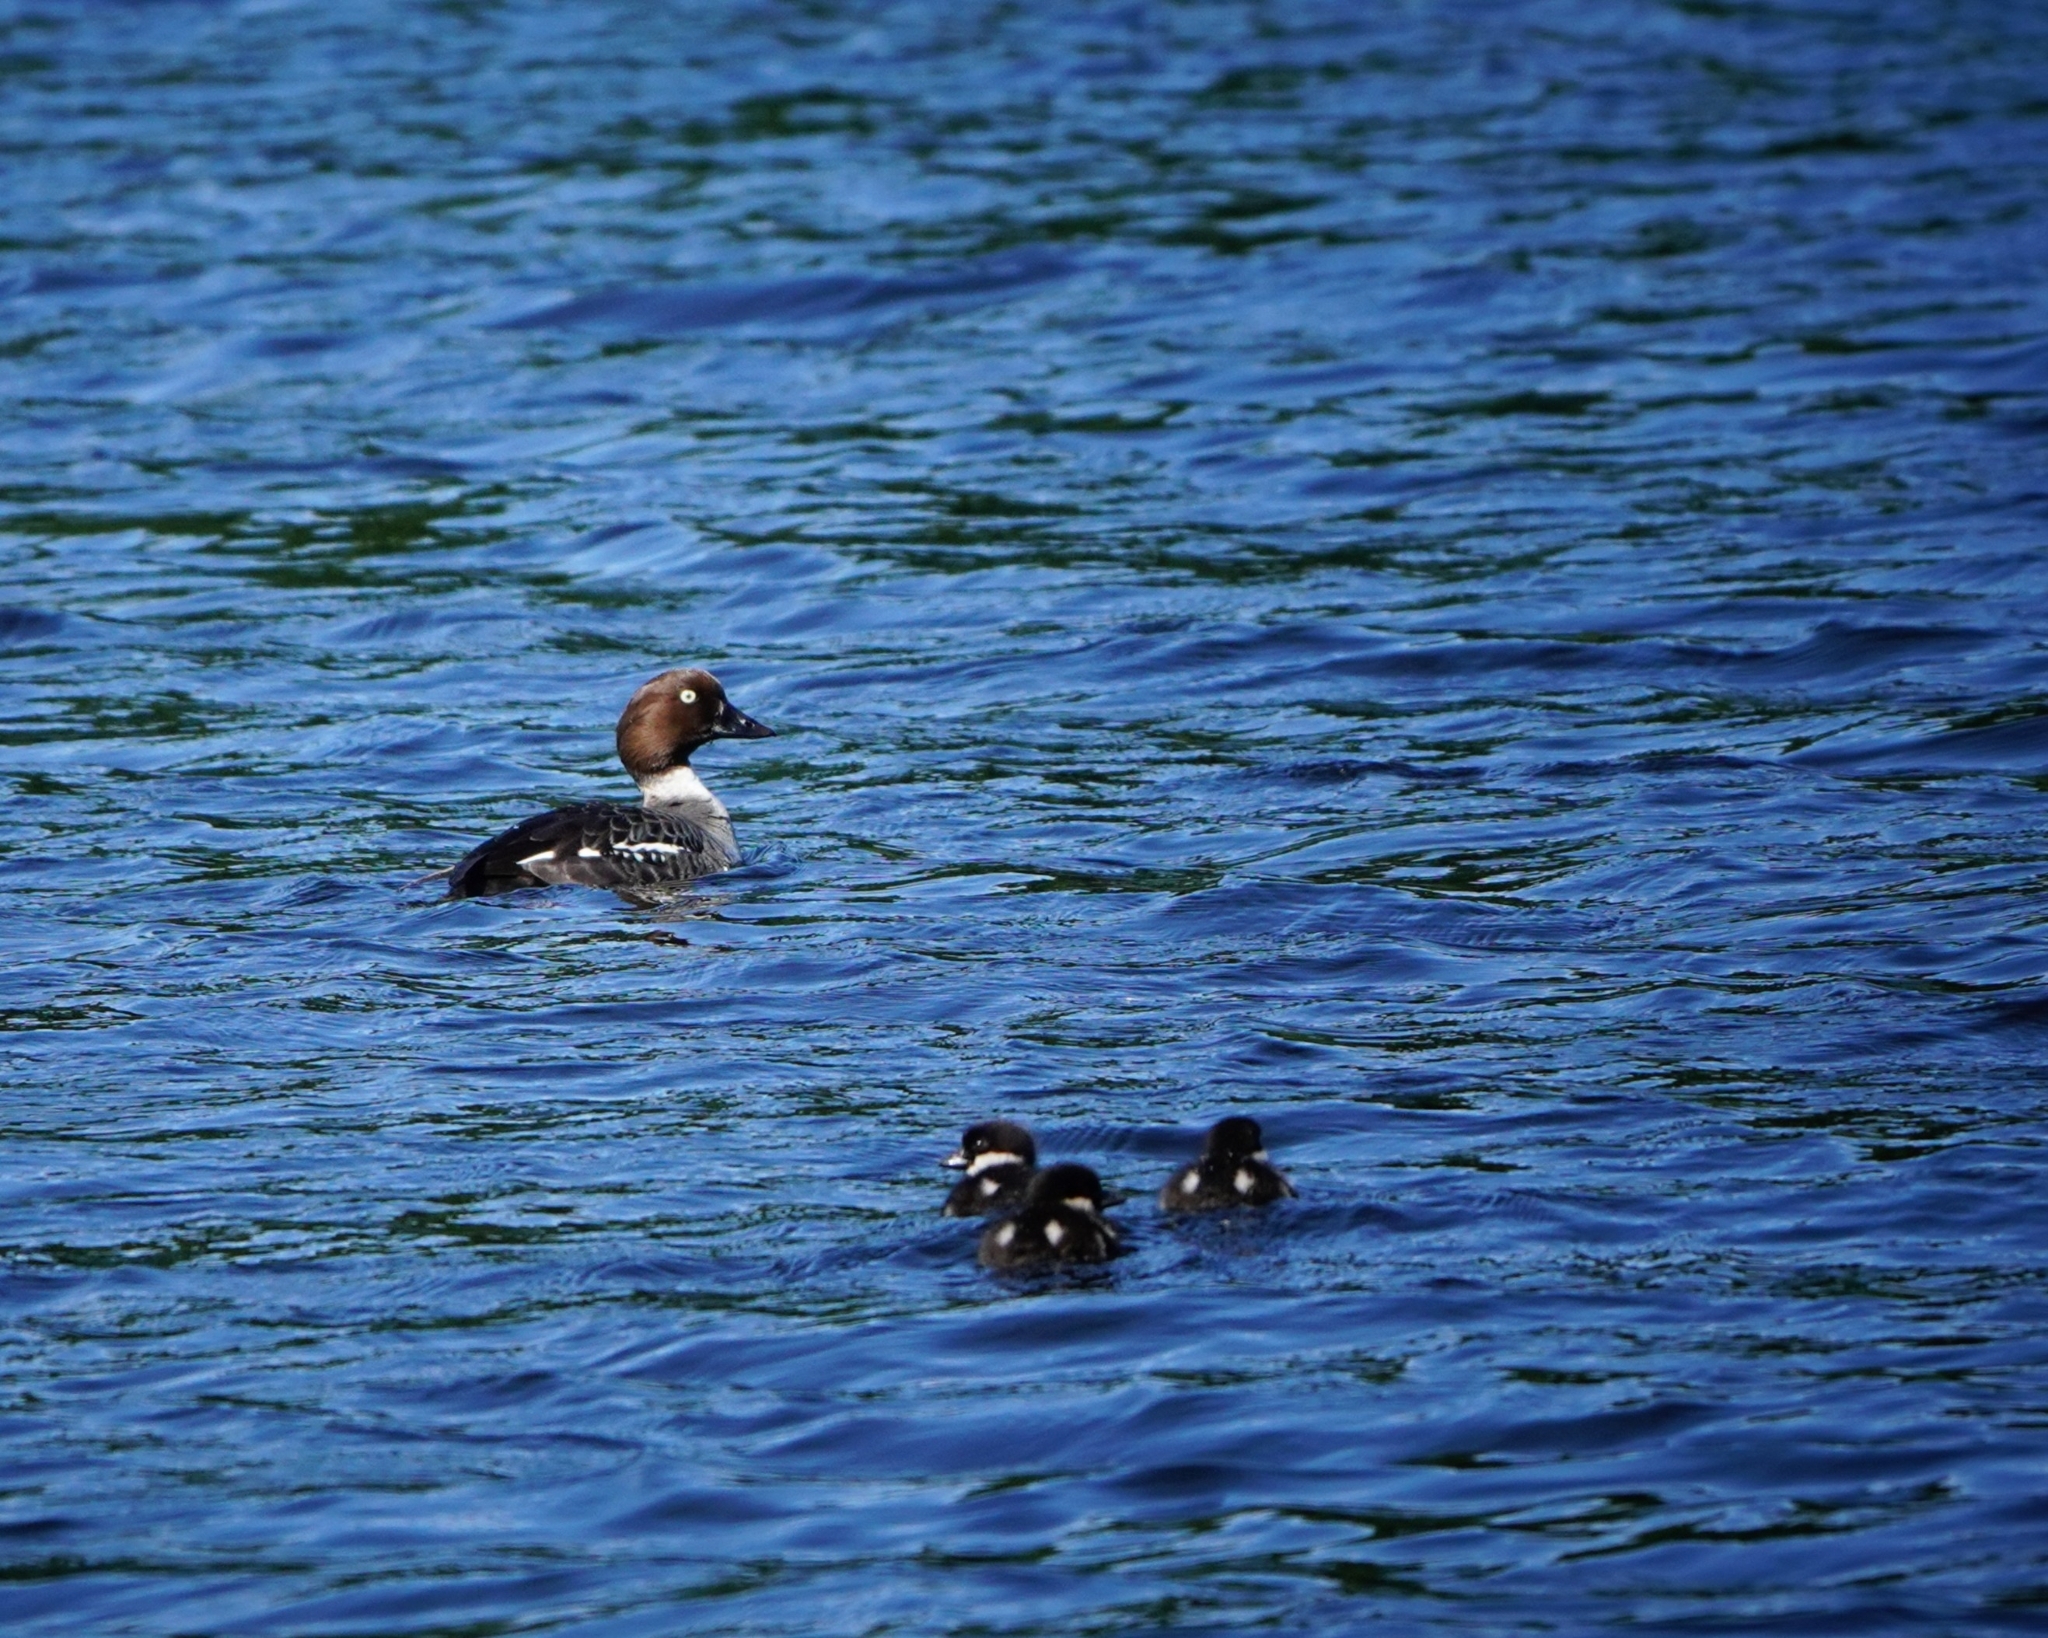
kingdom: Animalia
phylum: Chordata
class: Aves
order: Anseriformes
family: Anatidae
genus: Bucephala
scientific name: Bucephala clangula
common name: Common goldeneye
